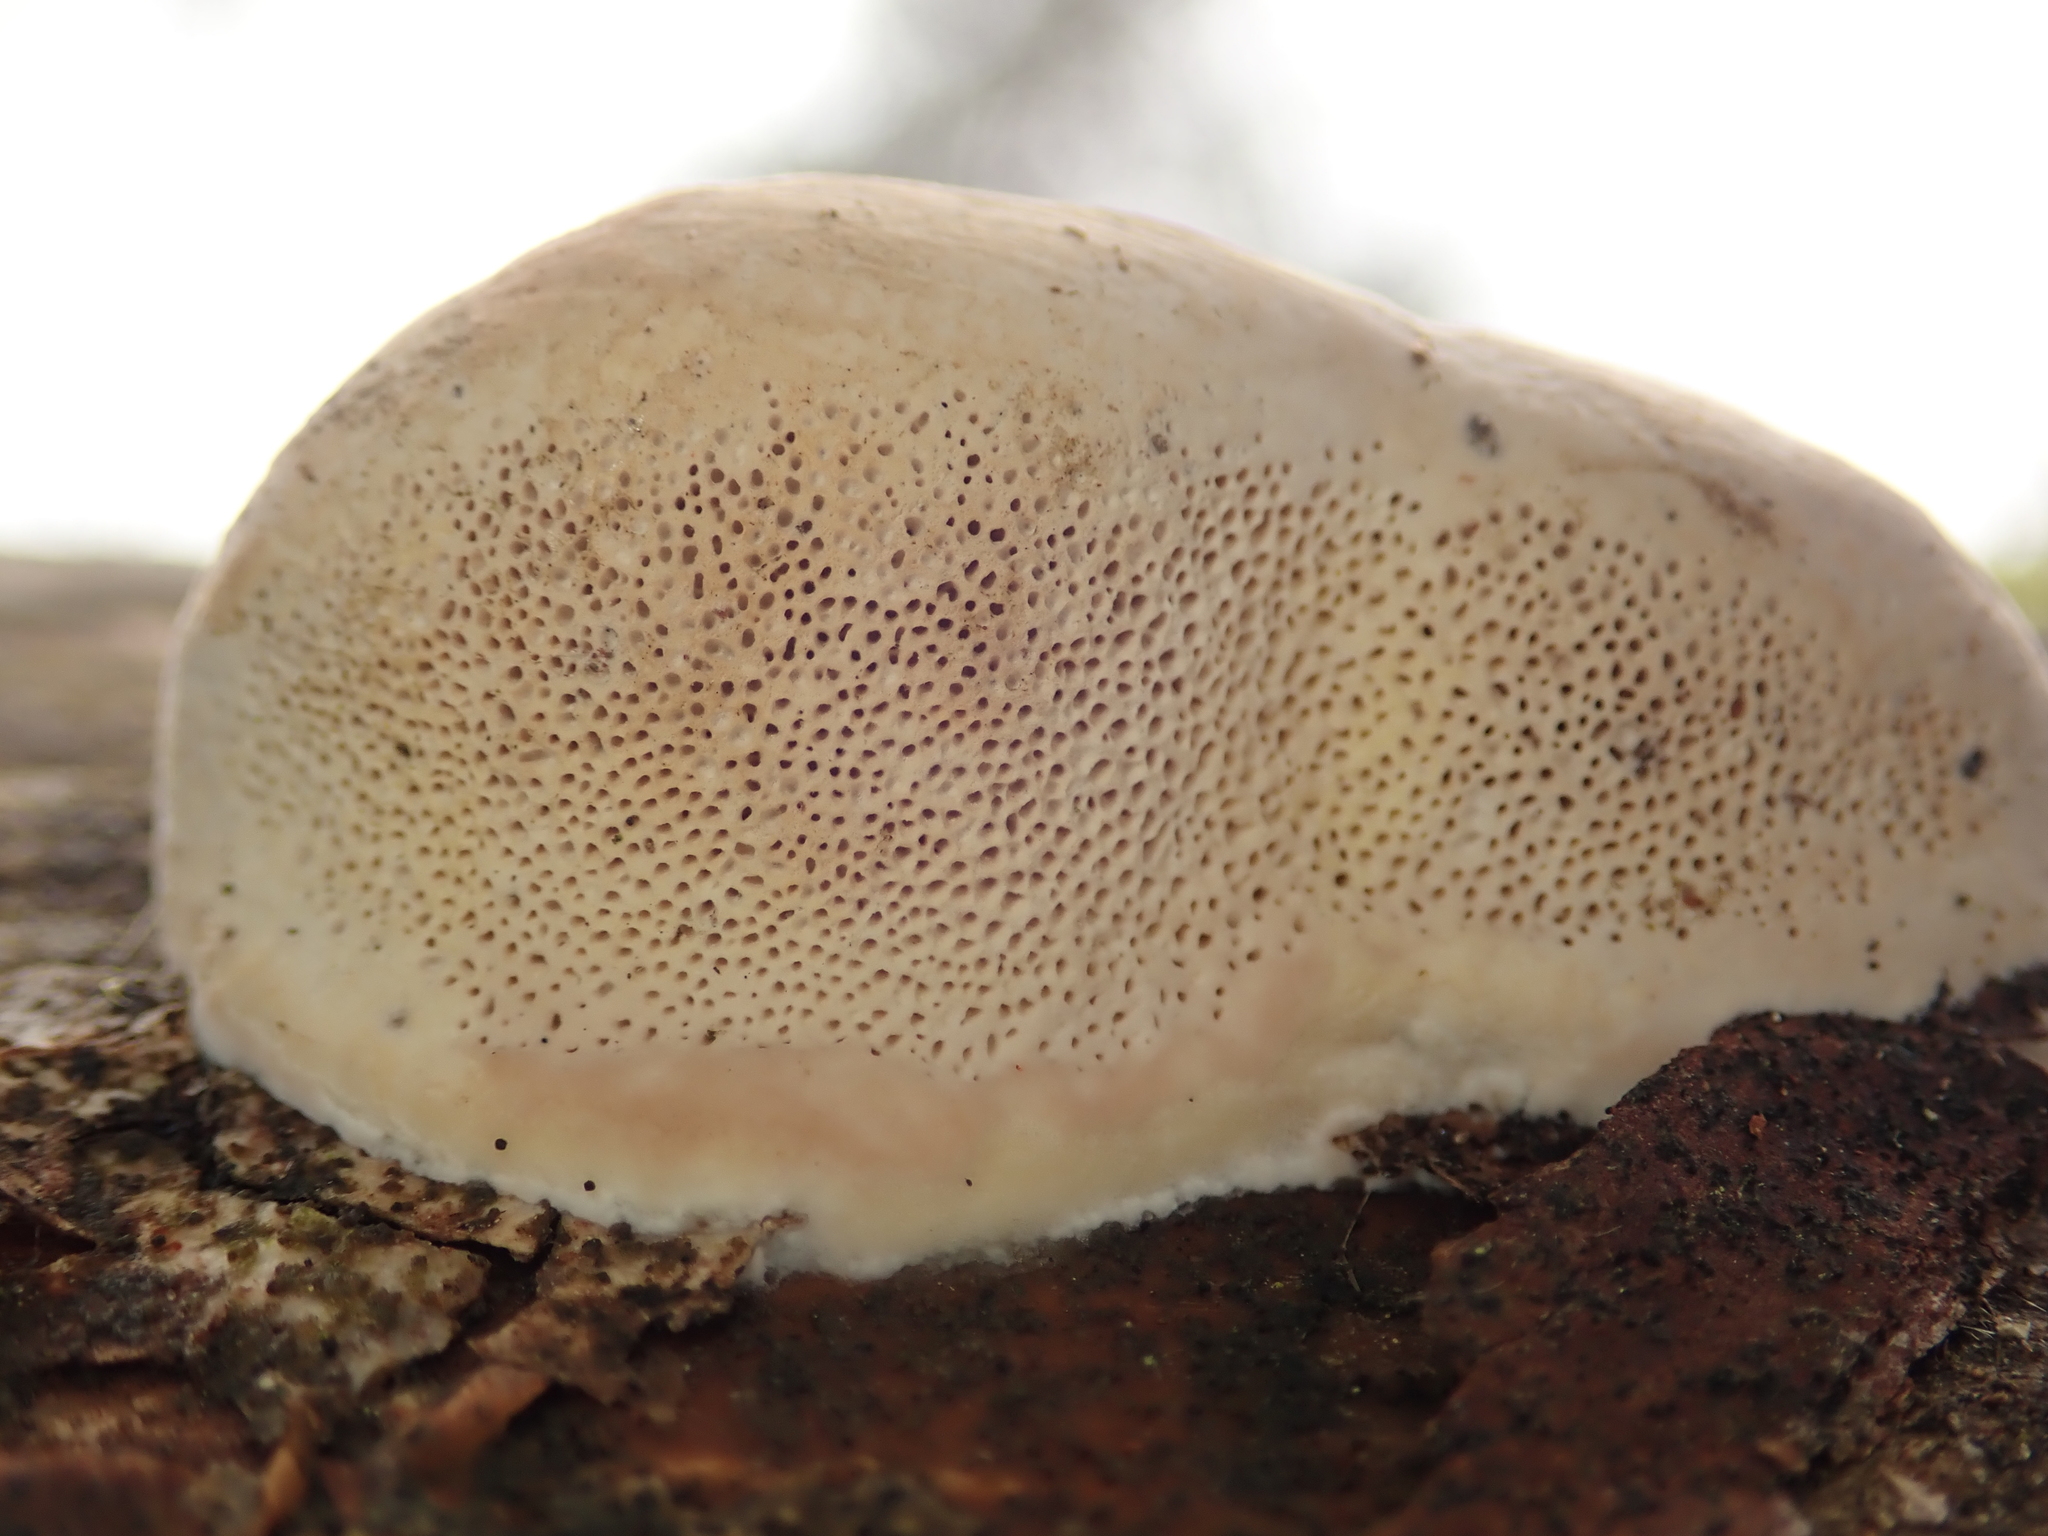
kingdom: Fungi
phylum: Basidiomycota
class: Agaricomycetes
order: Polyporales
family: Fomitopsidaceae
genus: Fomitopsis
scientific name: Fomitopsis pinicola
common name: Red-belted bracket
